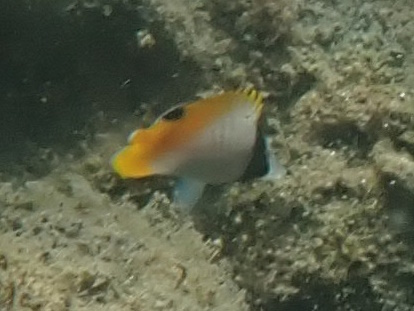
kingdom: Animalia
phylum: Chordata
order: Perciformes
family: Chaetodontidae
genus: Chaetodon
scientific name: Chaetodon auriga
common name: Threadfin butterflyfish
